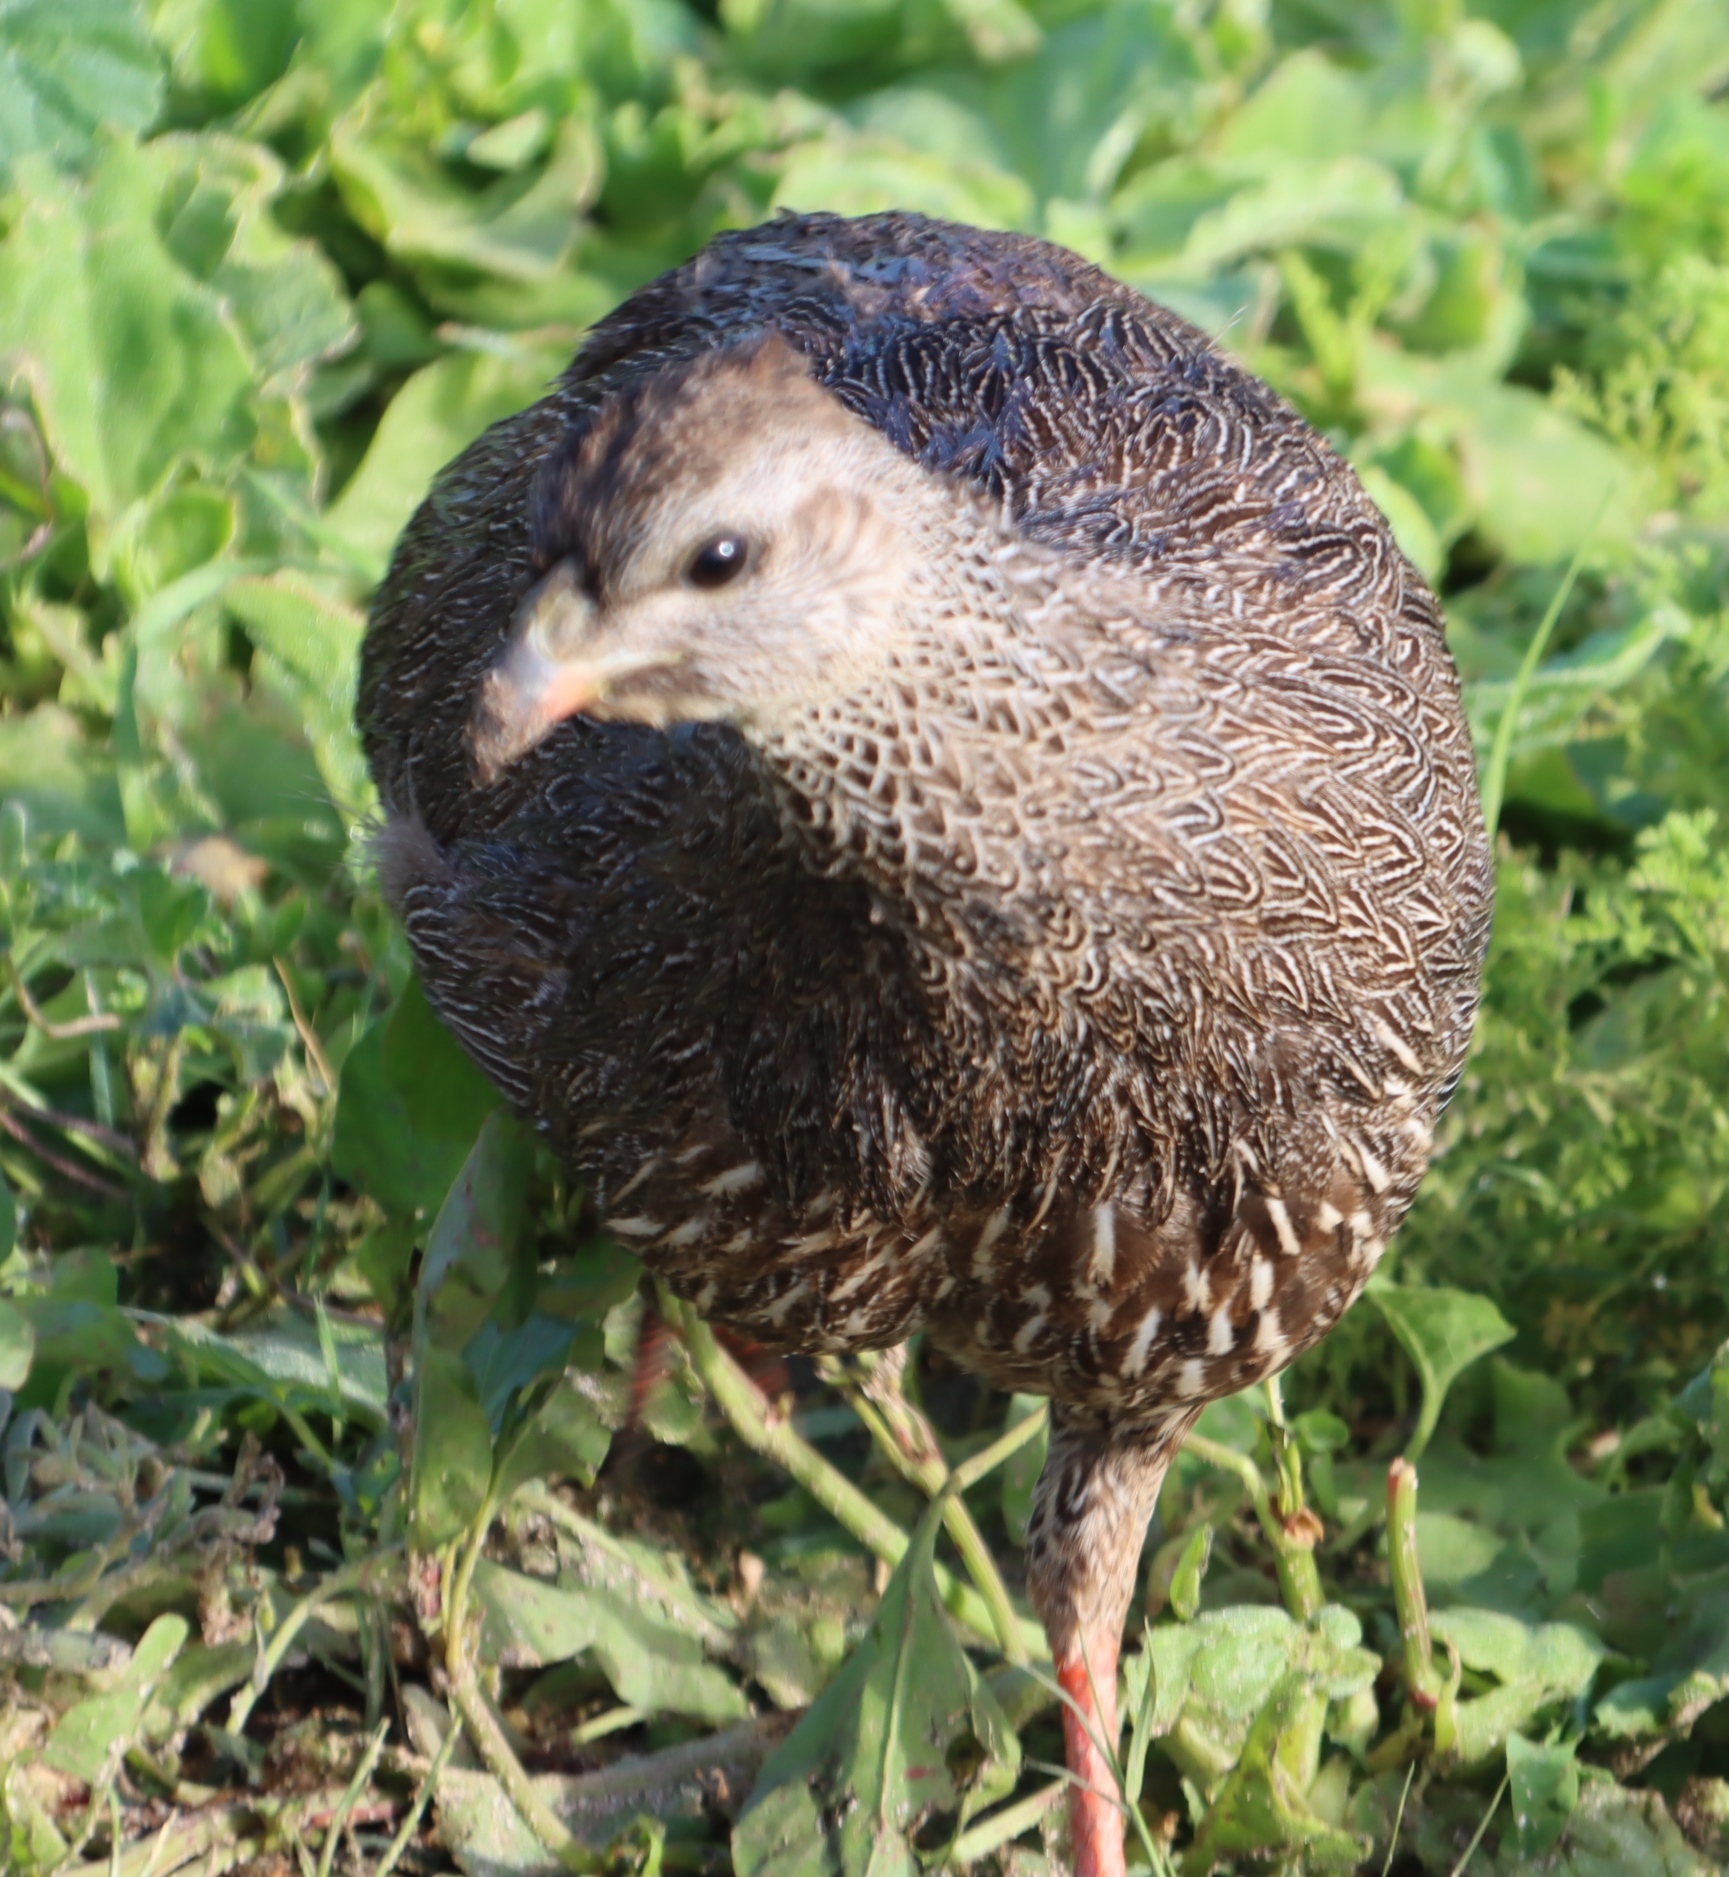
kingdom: Animalia
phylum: Chordata
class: Aves
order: Galliformes
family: Phasianidae
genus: Pternistis
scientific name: Pternistis capensis
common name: Cape spurfowl
